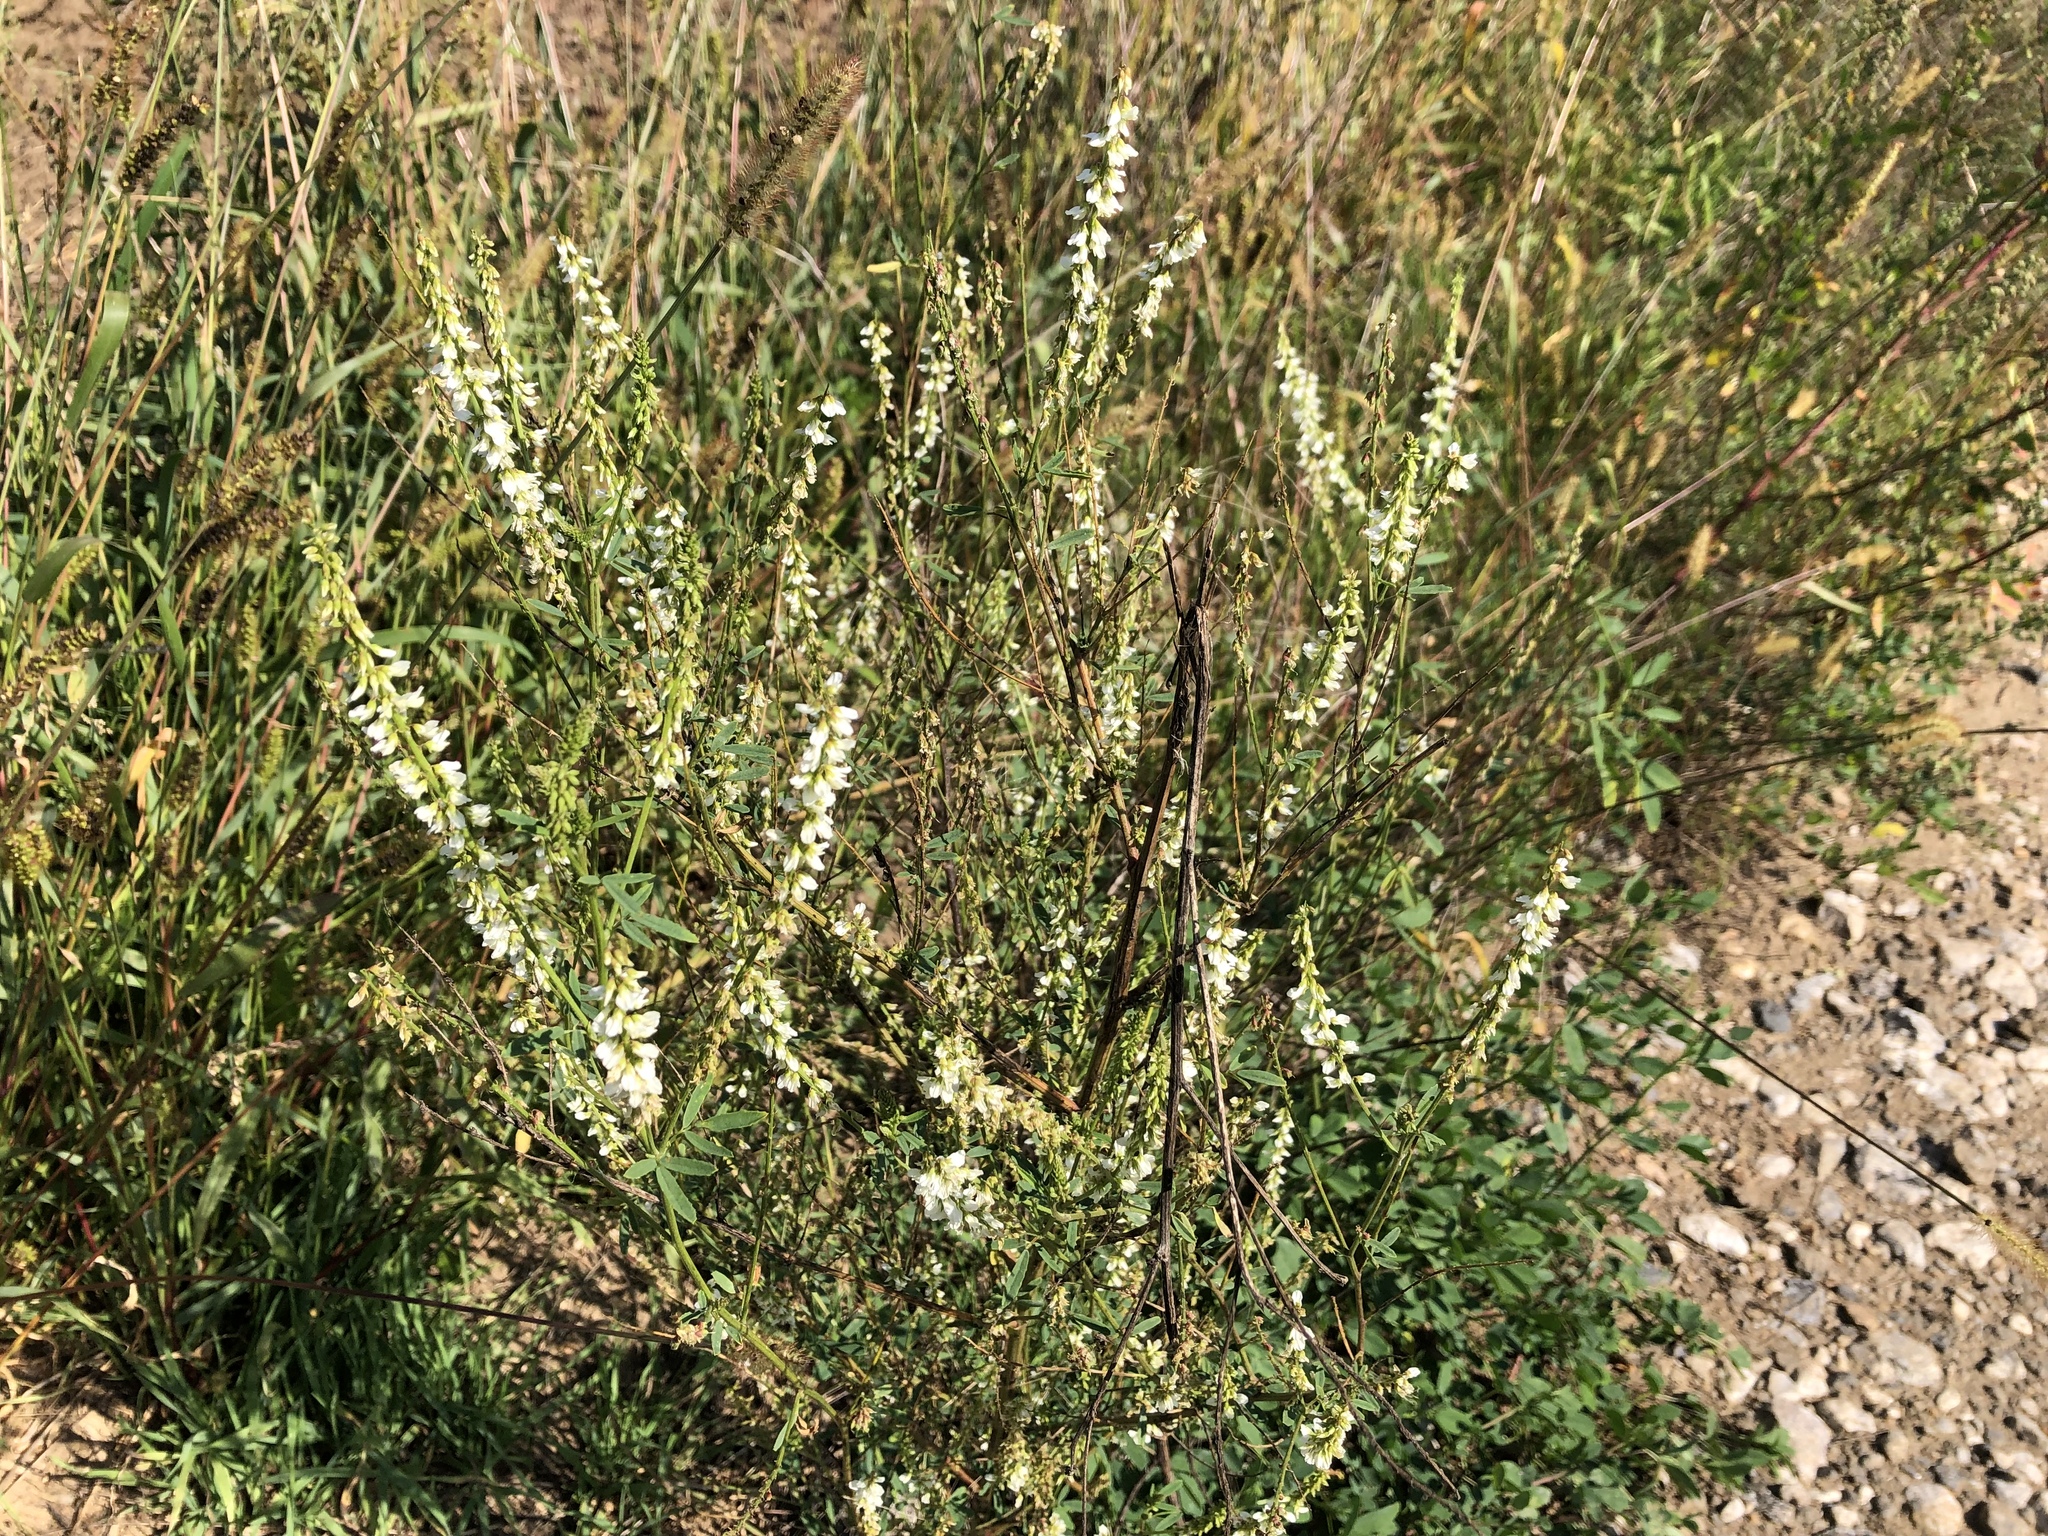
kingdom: Plantae
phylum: Tracheophyta
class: Magnoliopsida
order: Fabales
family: Fabaceae
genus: Melilotus
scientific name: Melilotus albus
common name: White melilot
